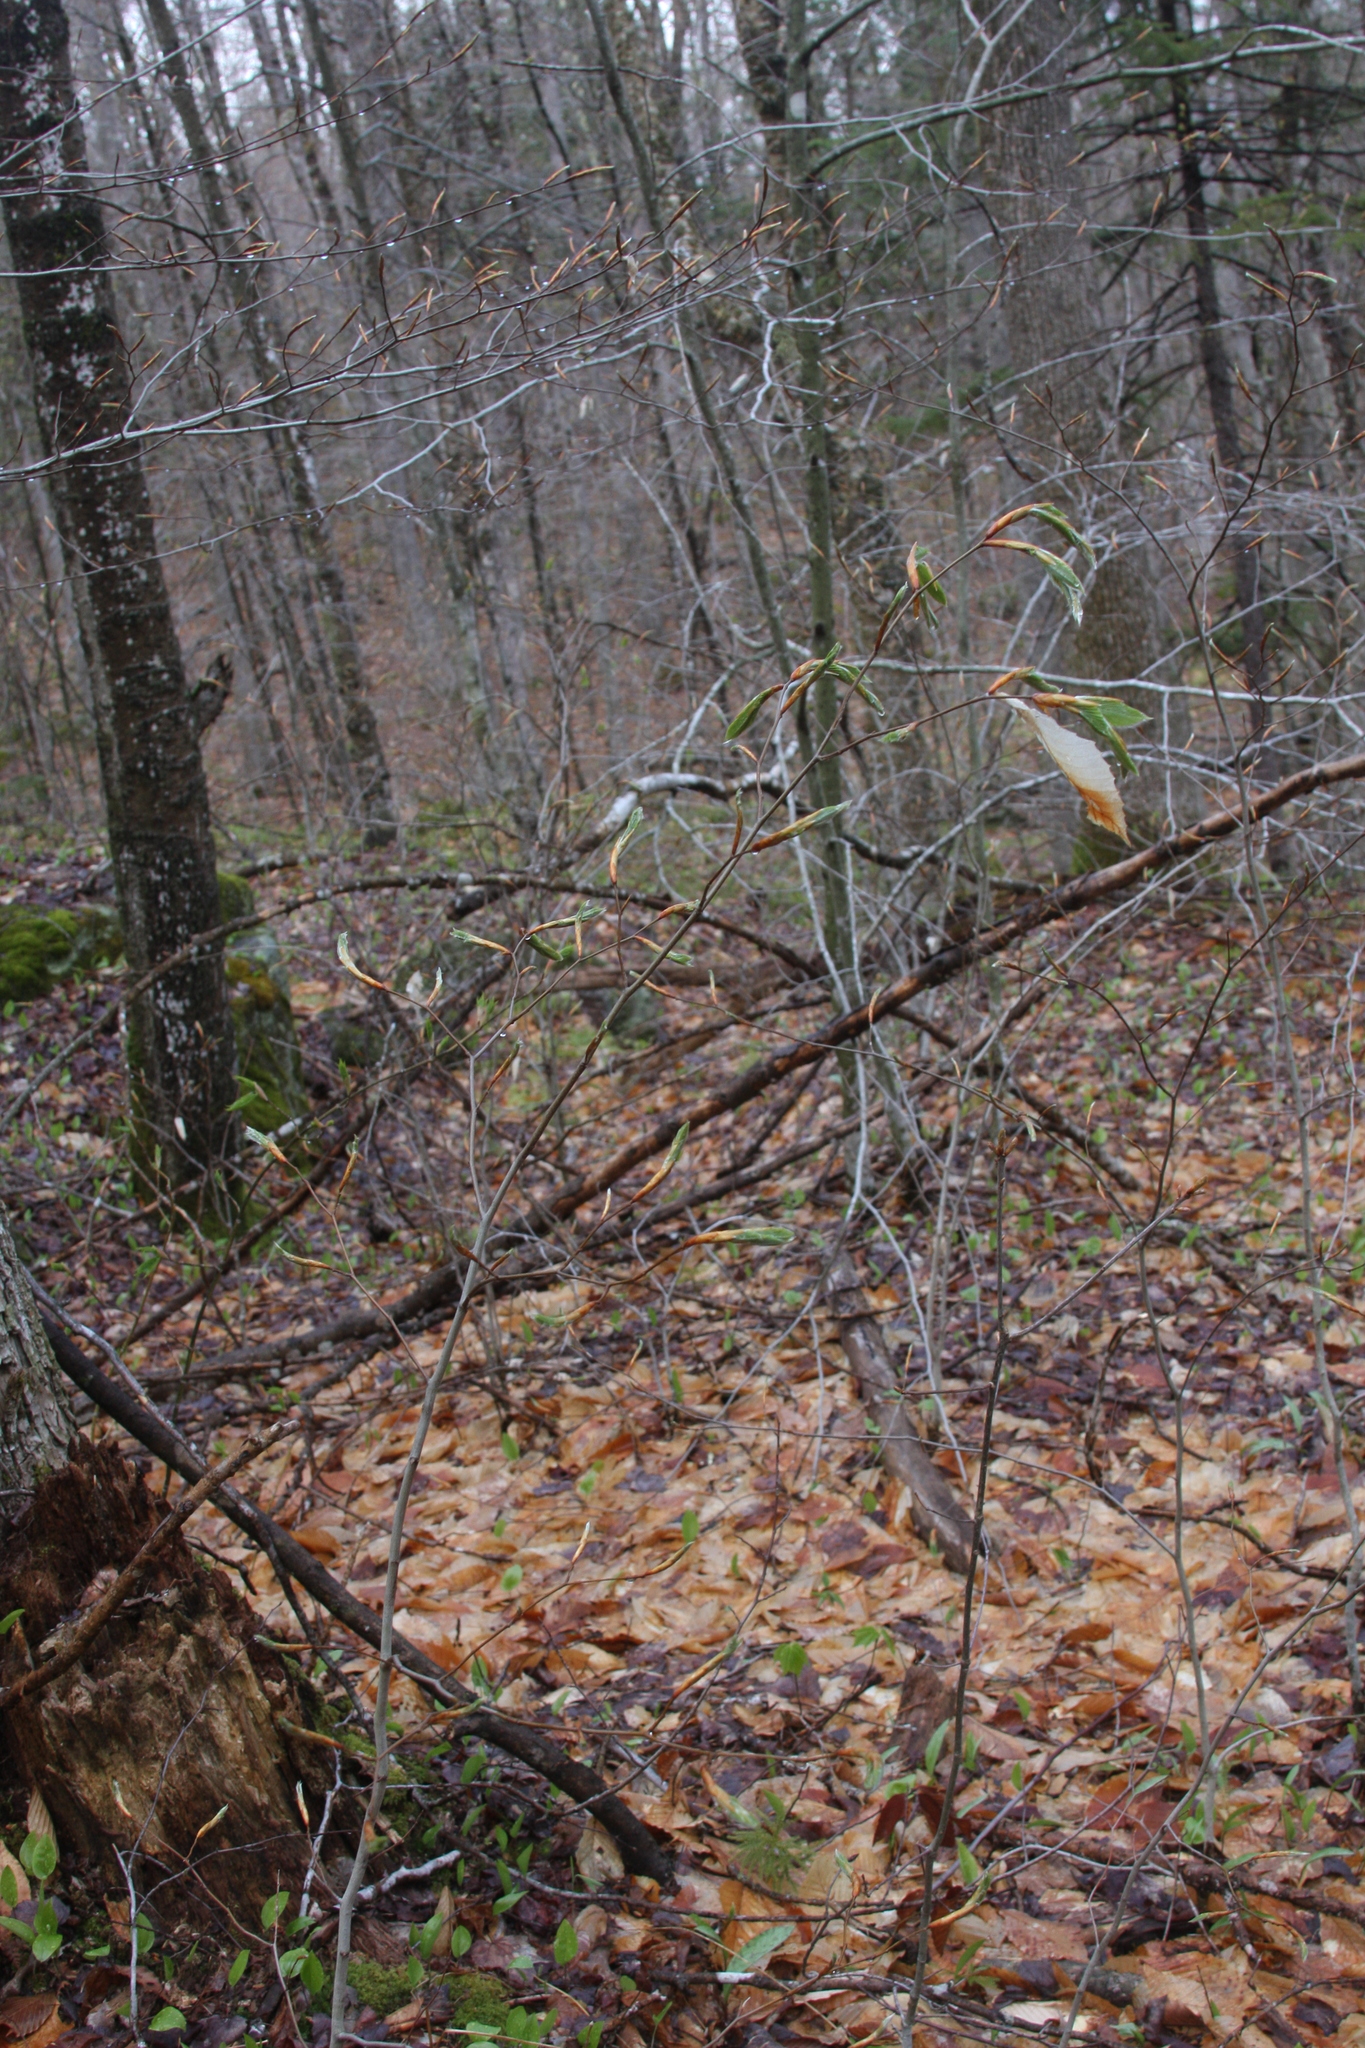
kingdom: Plantae
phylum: Tracheophyta
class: Magnoliopsida
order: Fagales
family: Fagaceae
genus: Fagus
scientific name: Fagus grandifolia
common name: American beech
